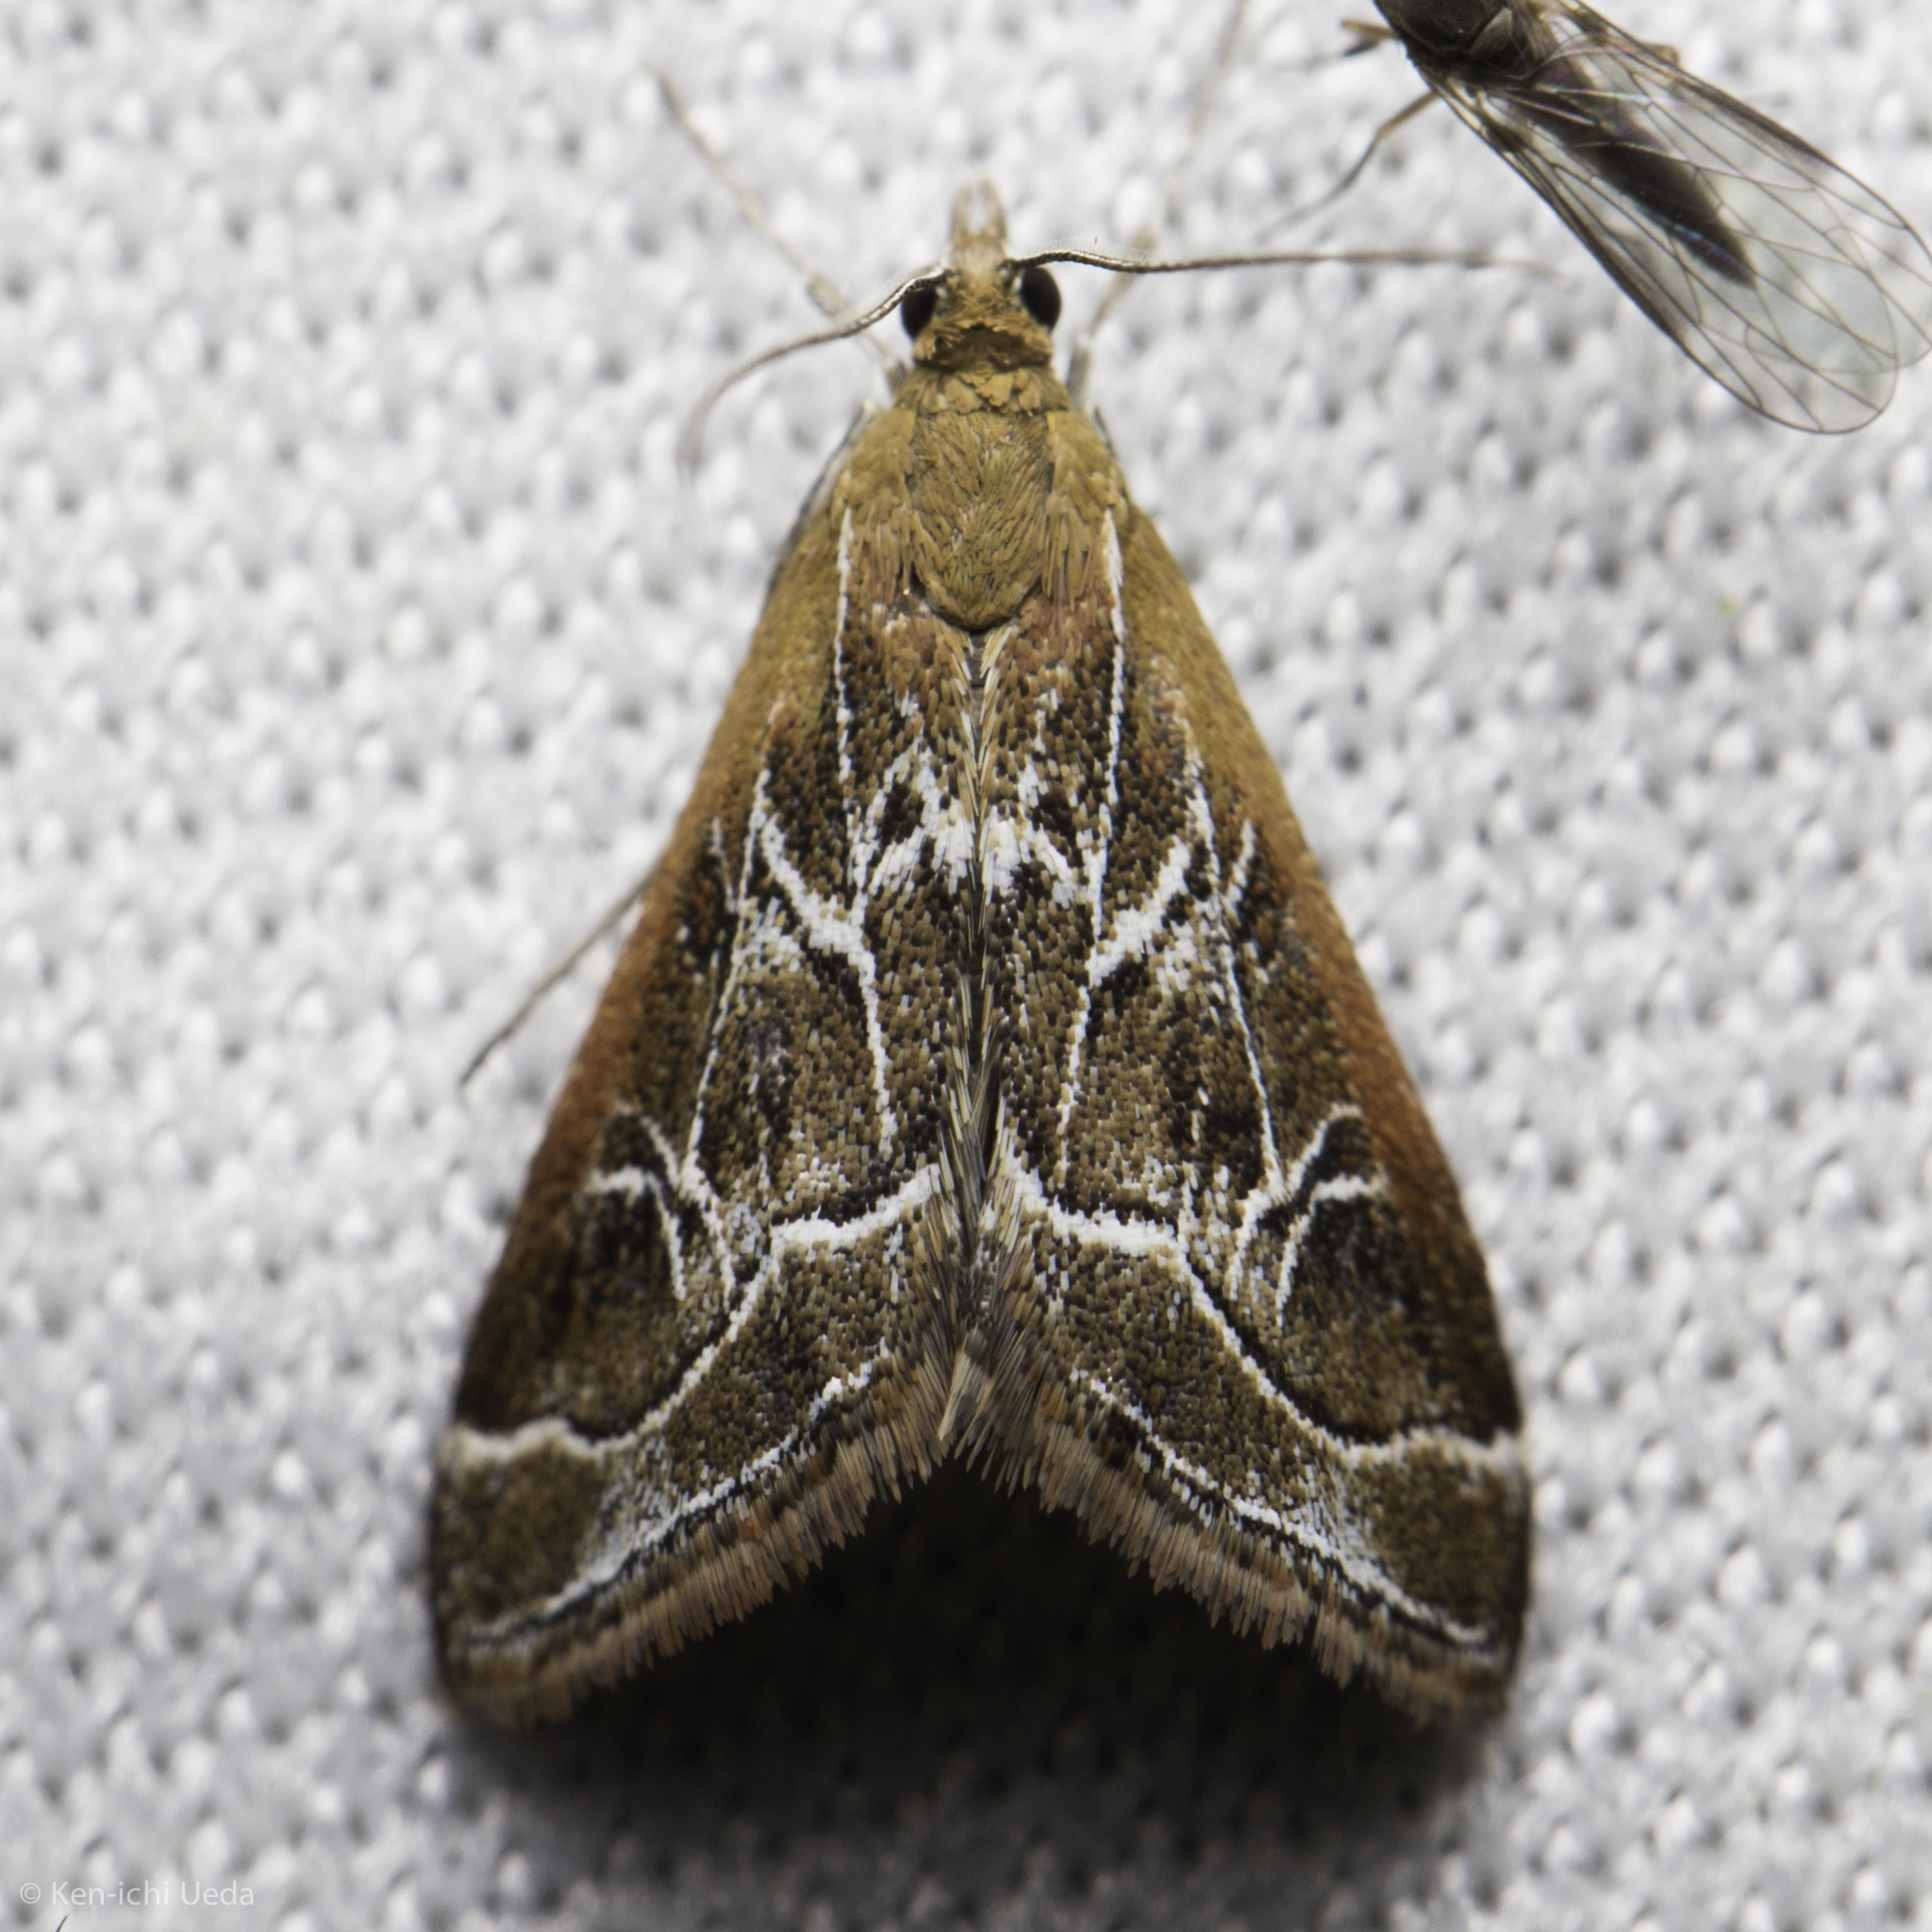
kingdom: Animalia
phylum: Arthropoda
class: Insecta
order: Lepidoptera
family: Crambidae
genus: Pyrausta
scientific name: Pyrausta nexalis
